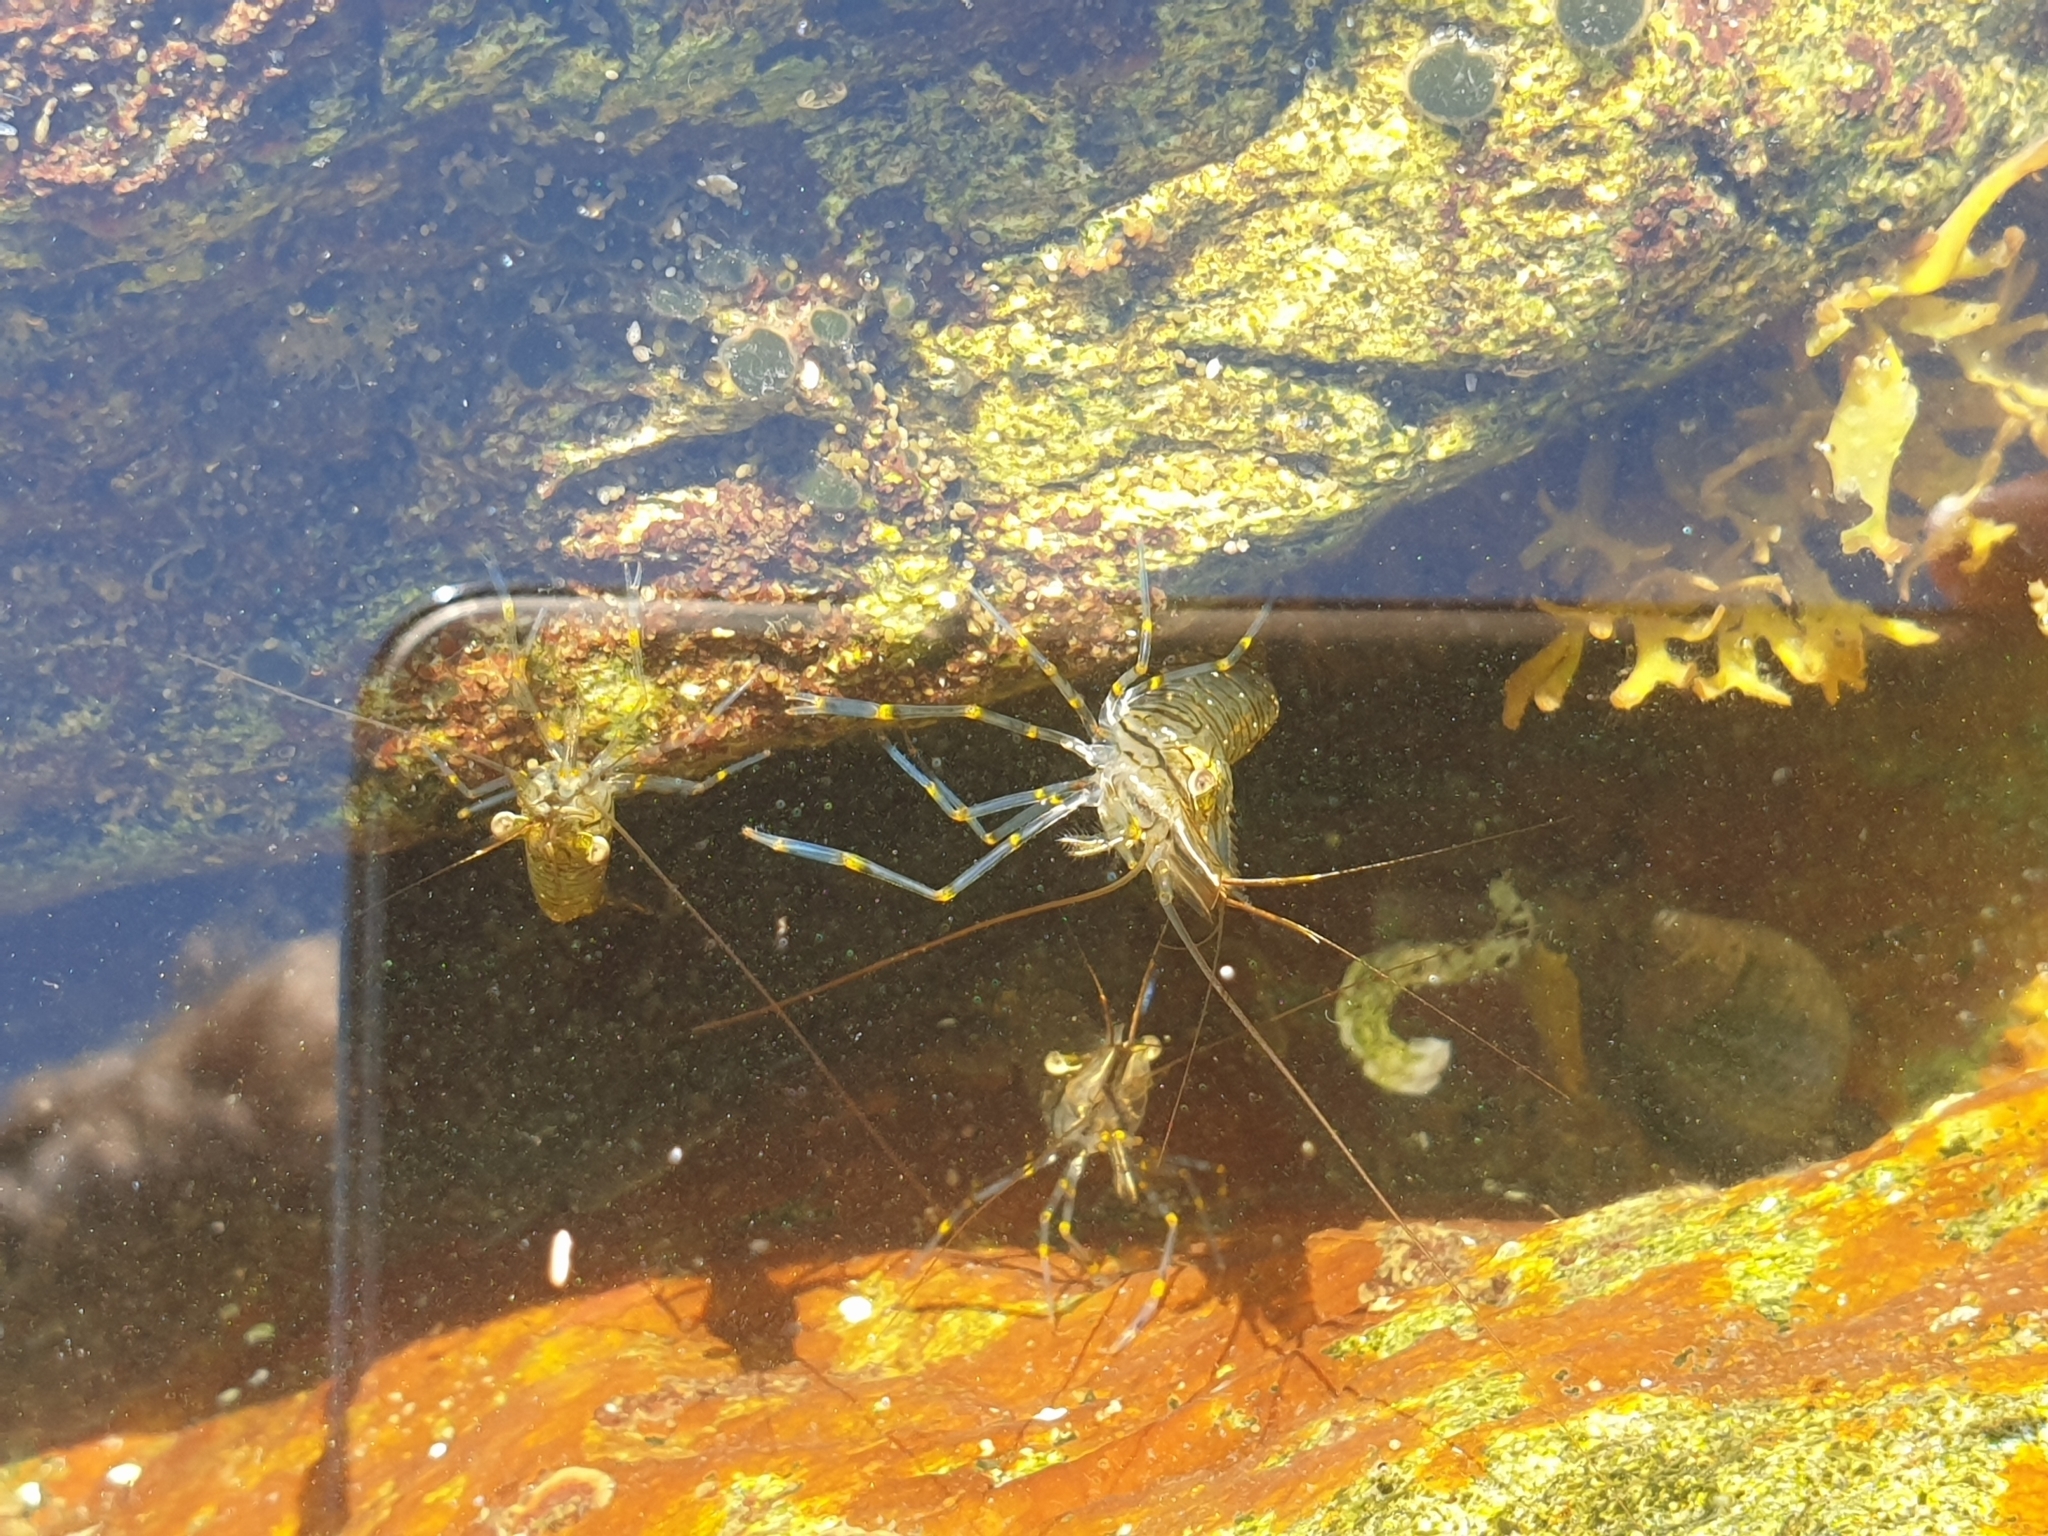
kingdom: Animalia
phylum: Arthropoda
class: Malacostraca
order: Decapoda
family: Palaemonidae
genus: Palaemon
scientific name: Palaemon elegans
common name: Grass prawm
